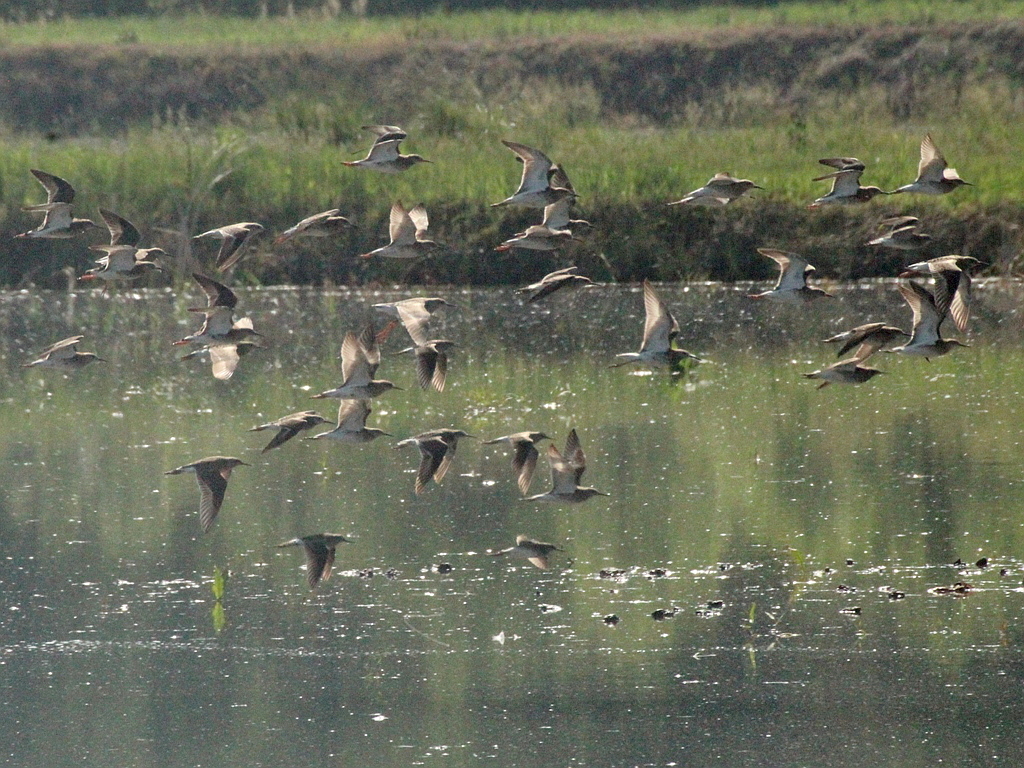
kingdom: Animalia
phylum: Chordata
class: Aves
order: Charadriiformes
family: Scolopacidae
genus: Calidris
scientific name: Calidris pugnax
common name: Ruff
